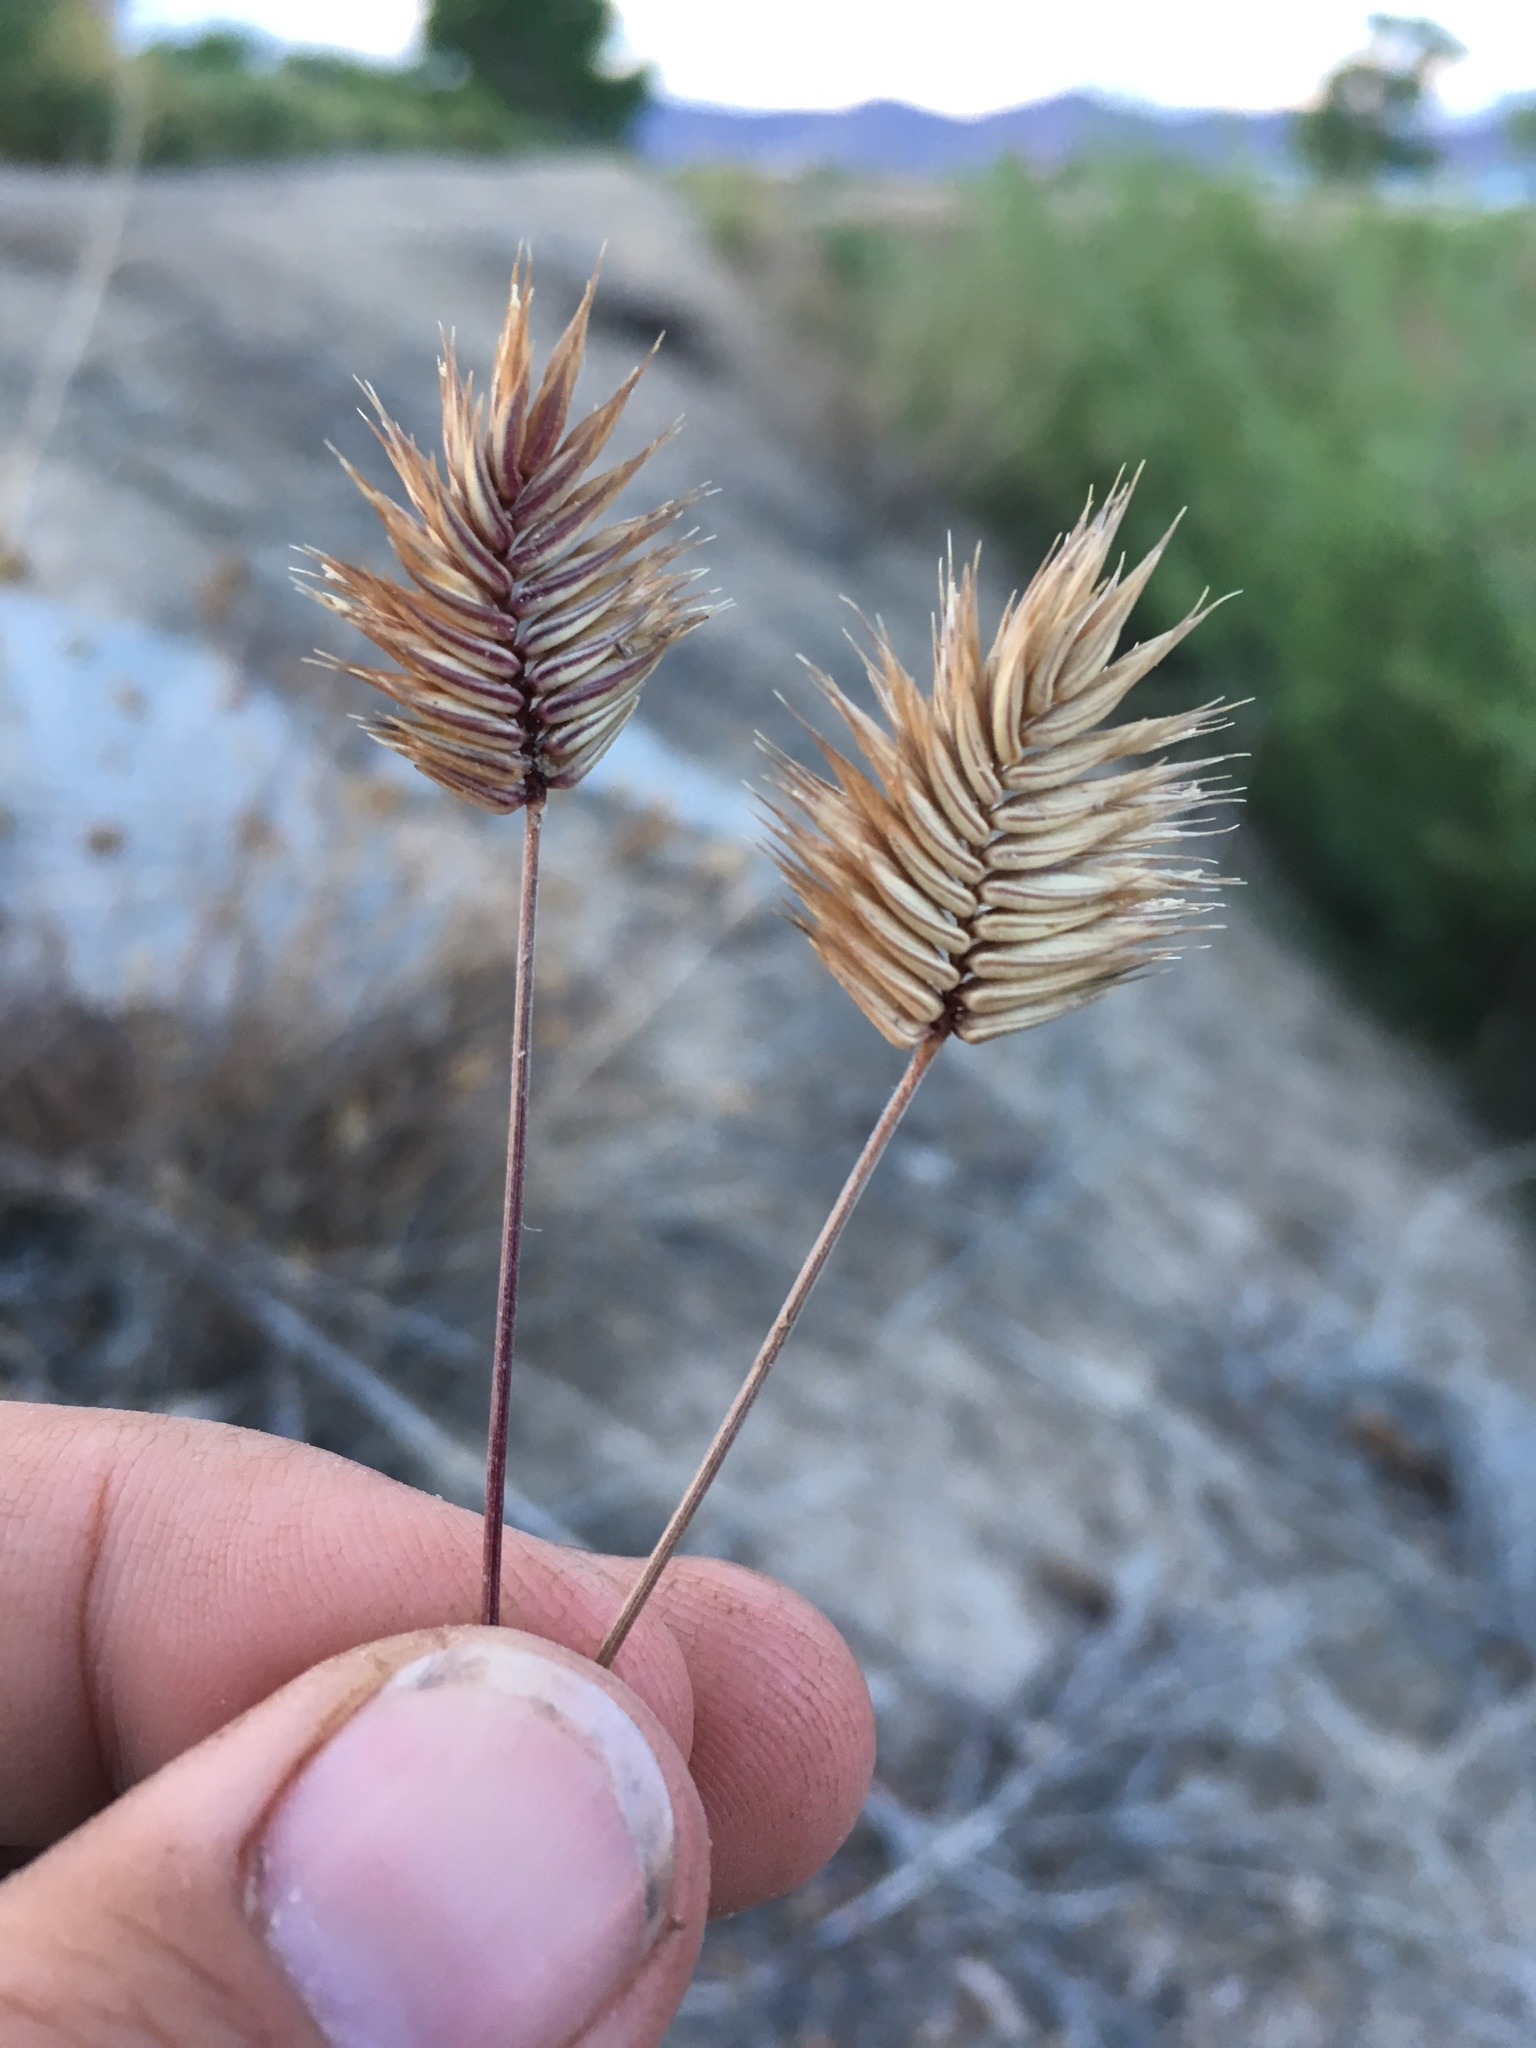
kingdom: Plantae
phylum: Tracheophyta
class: Liliopsida
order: Poales
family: Poaceae
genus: Eremopyrum
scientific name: Eremopyrum triticeum
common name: Annual wheatgrass
